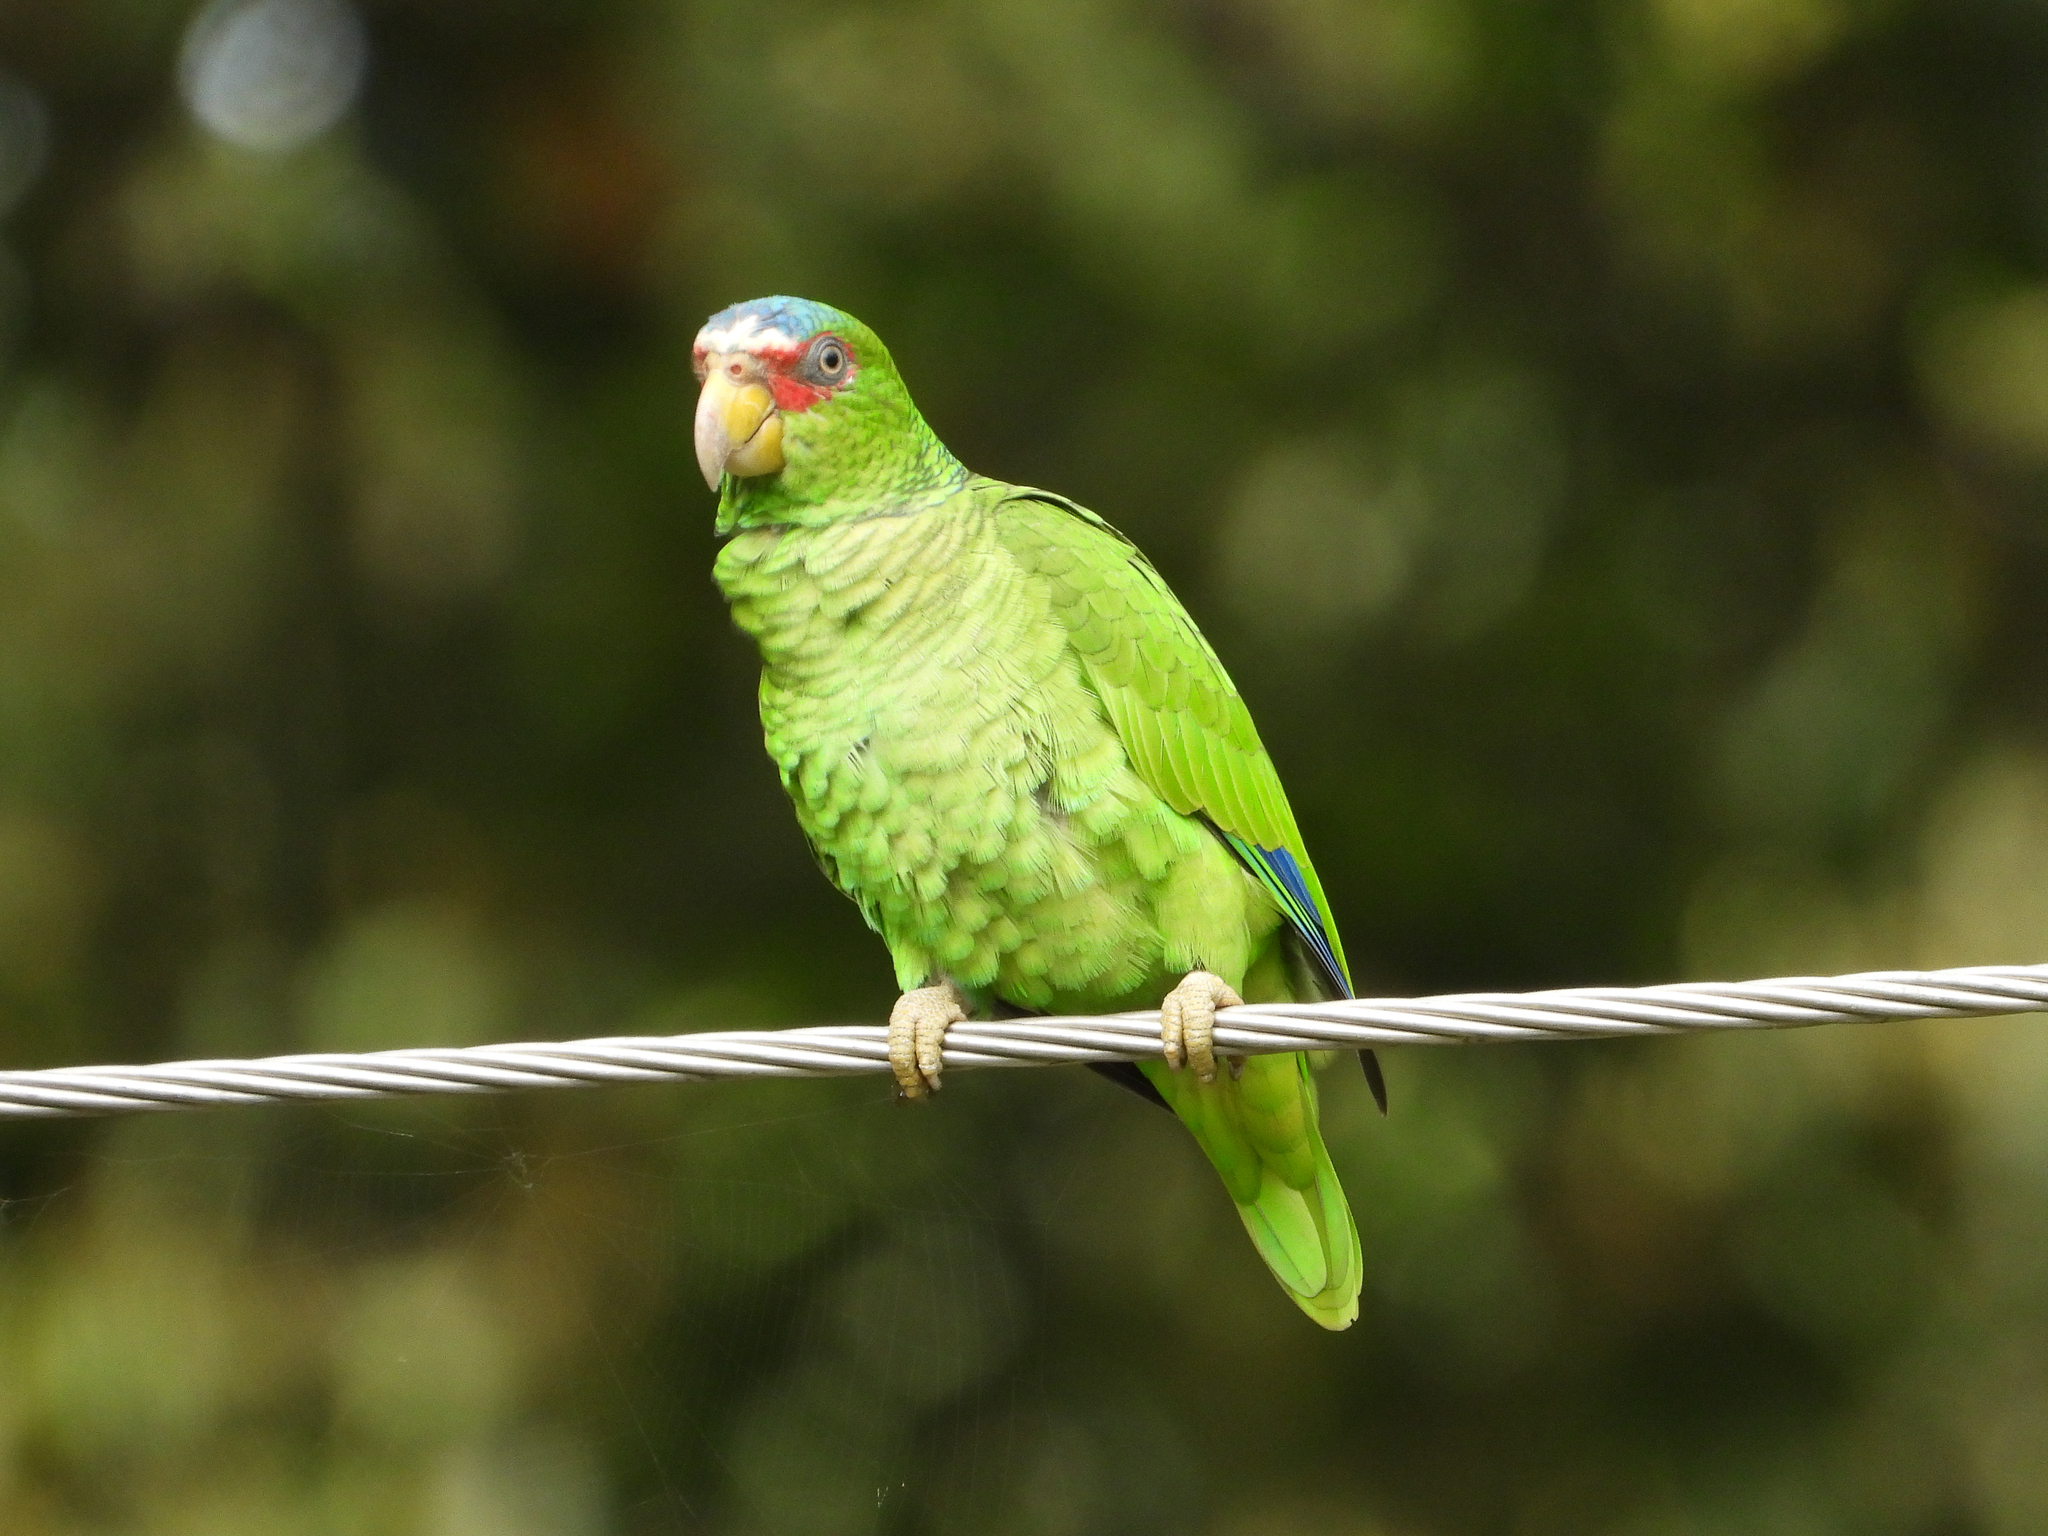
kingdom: Animalia
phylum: Chordata
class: Aves
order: Psittaciformes
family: Psittacidae
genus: Amazona
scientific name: Amazona albifrons
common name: White-fronted amazon
